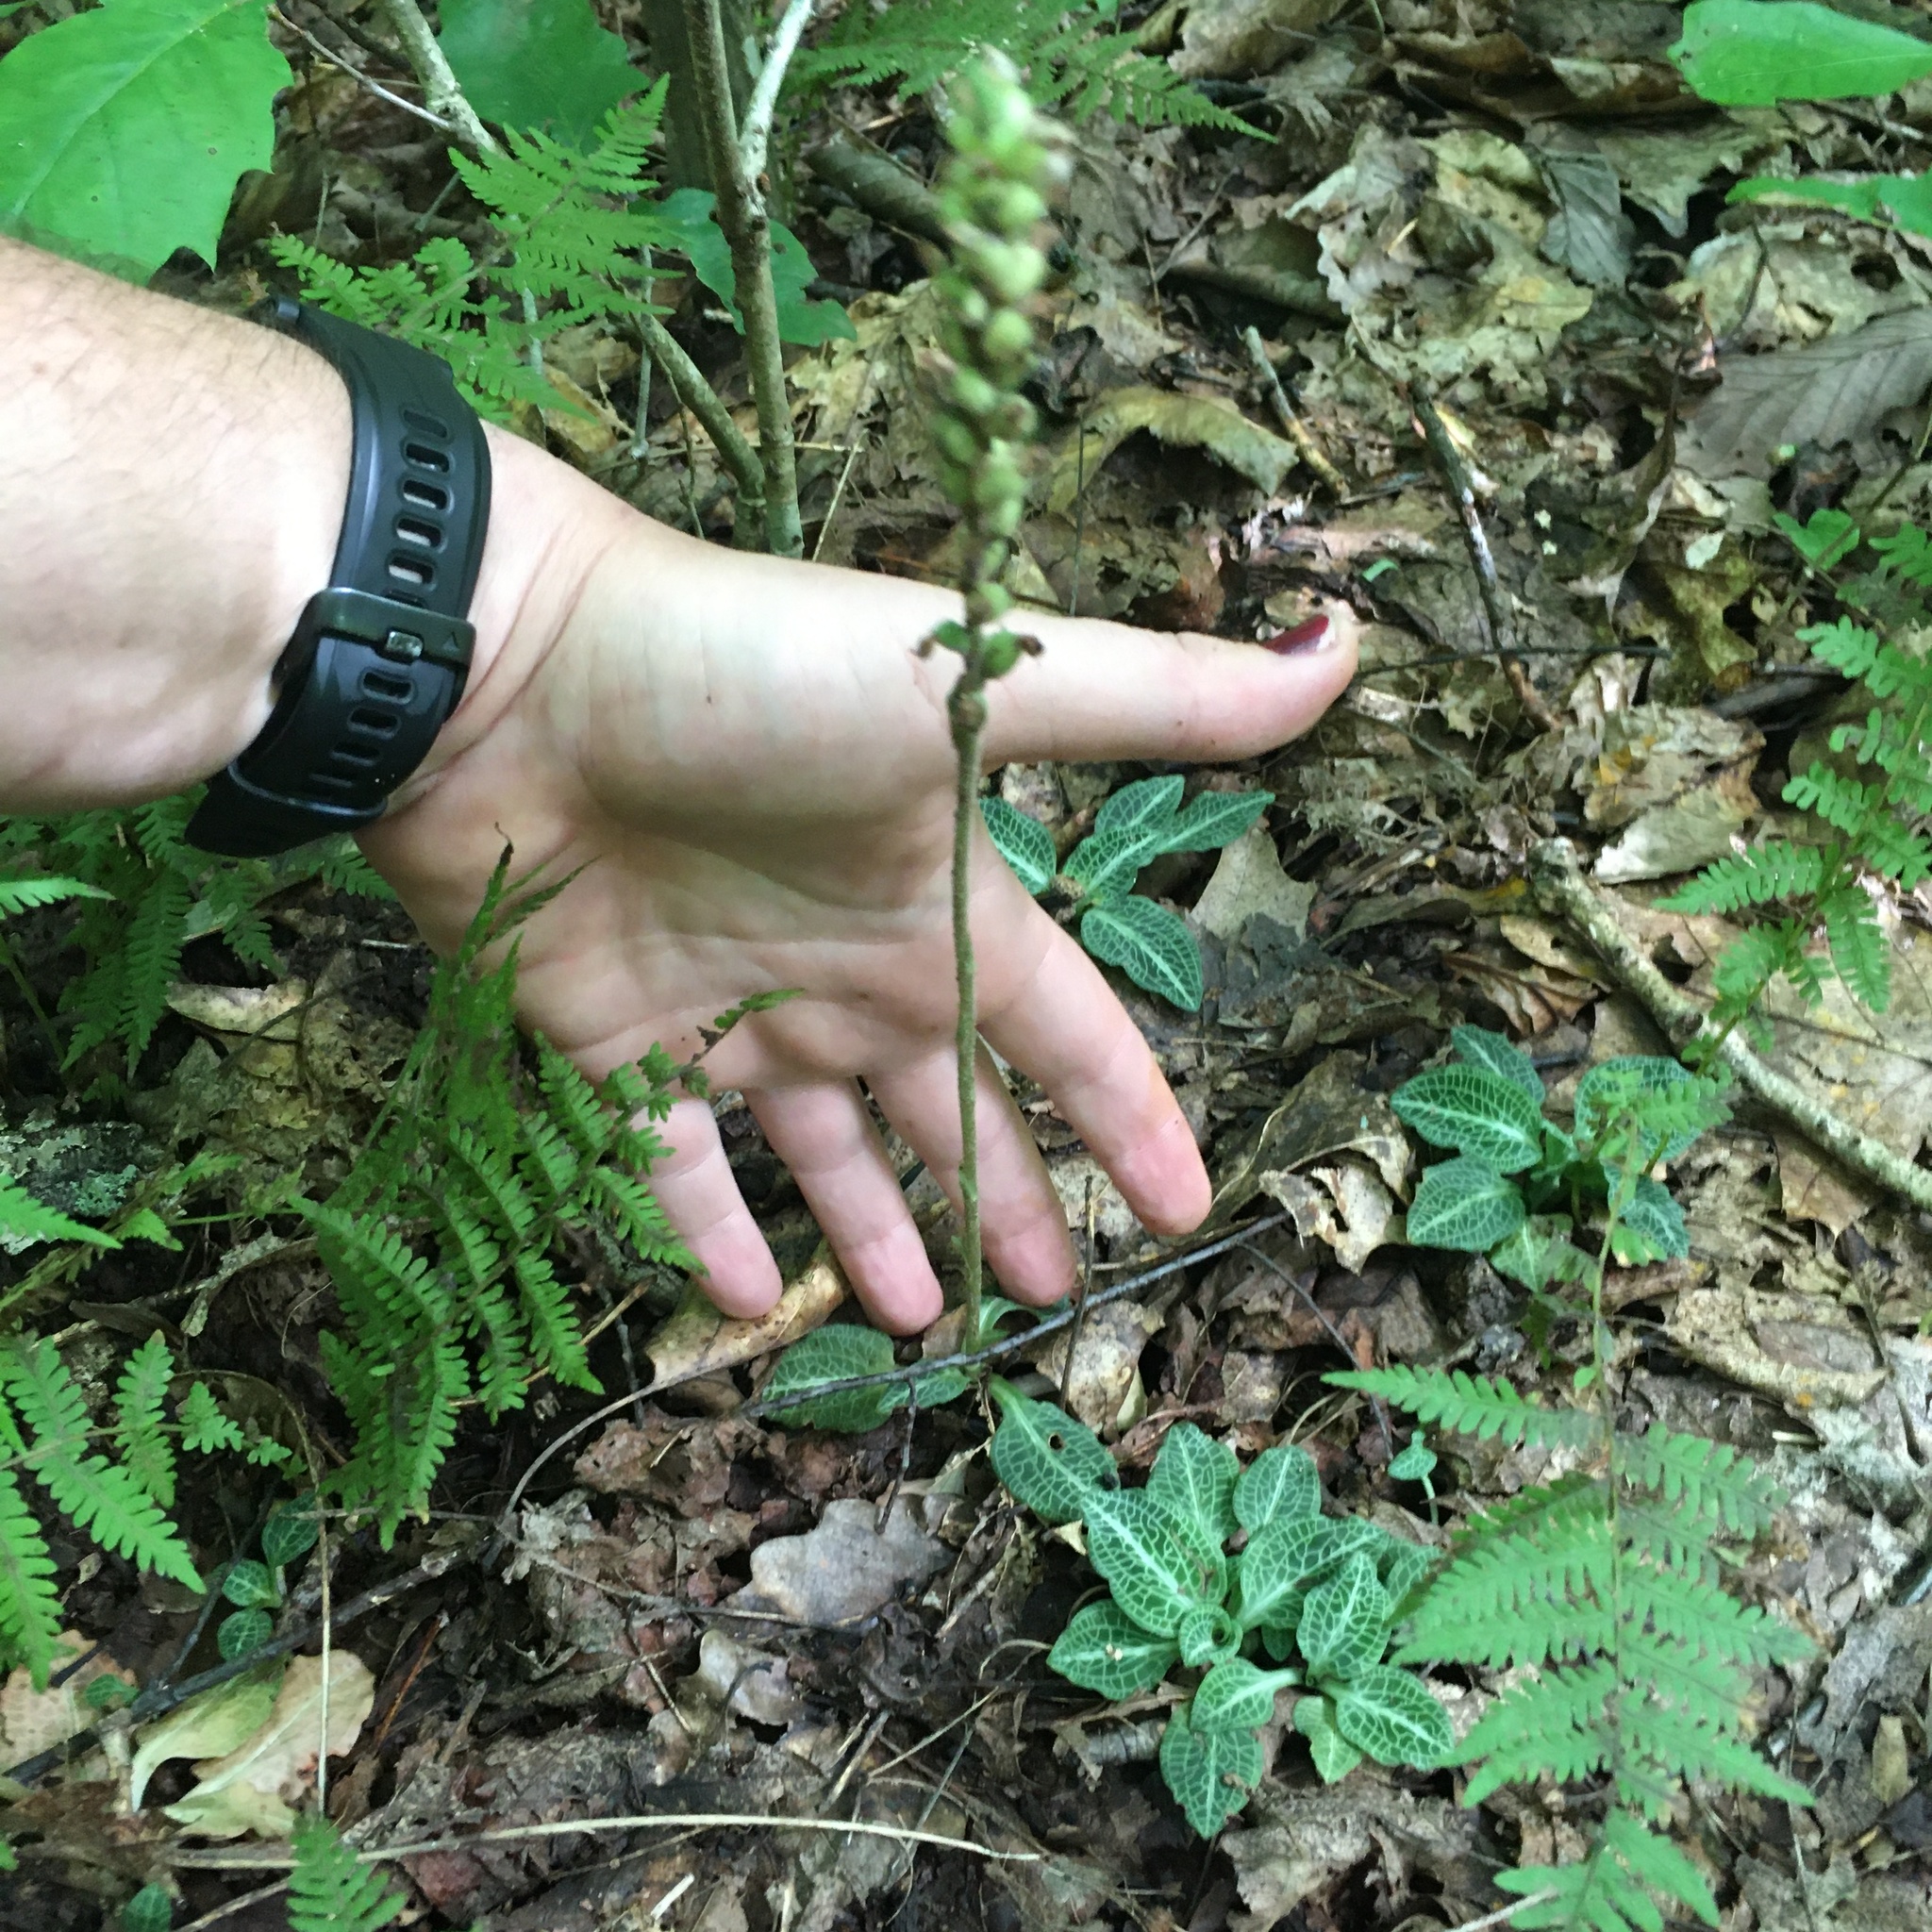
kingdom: Plantae
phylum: Tracheophyta
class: Liliopsida
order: Asparagales
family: Orchidaceae
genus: Goodyera
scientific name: Goodyera pubescens
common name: Downy rattlesnake-plantain
